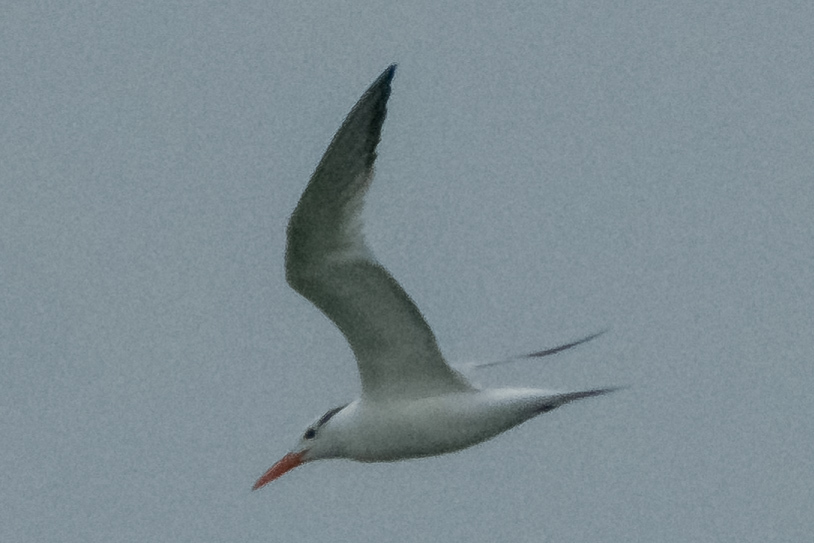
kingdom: Animalia
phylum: Chordata
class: Aves
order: Charadriiformes
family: Laridae
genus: Thalasseus
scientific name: Thalasseus maximus
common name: Royal tern
